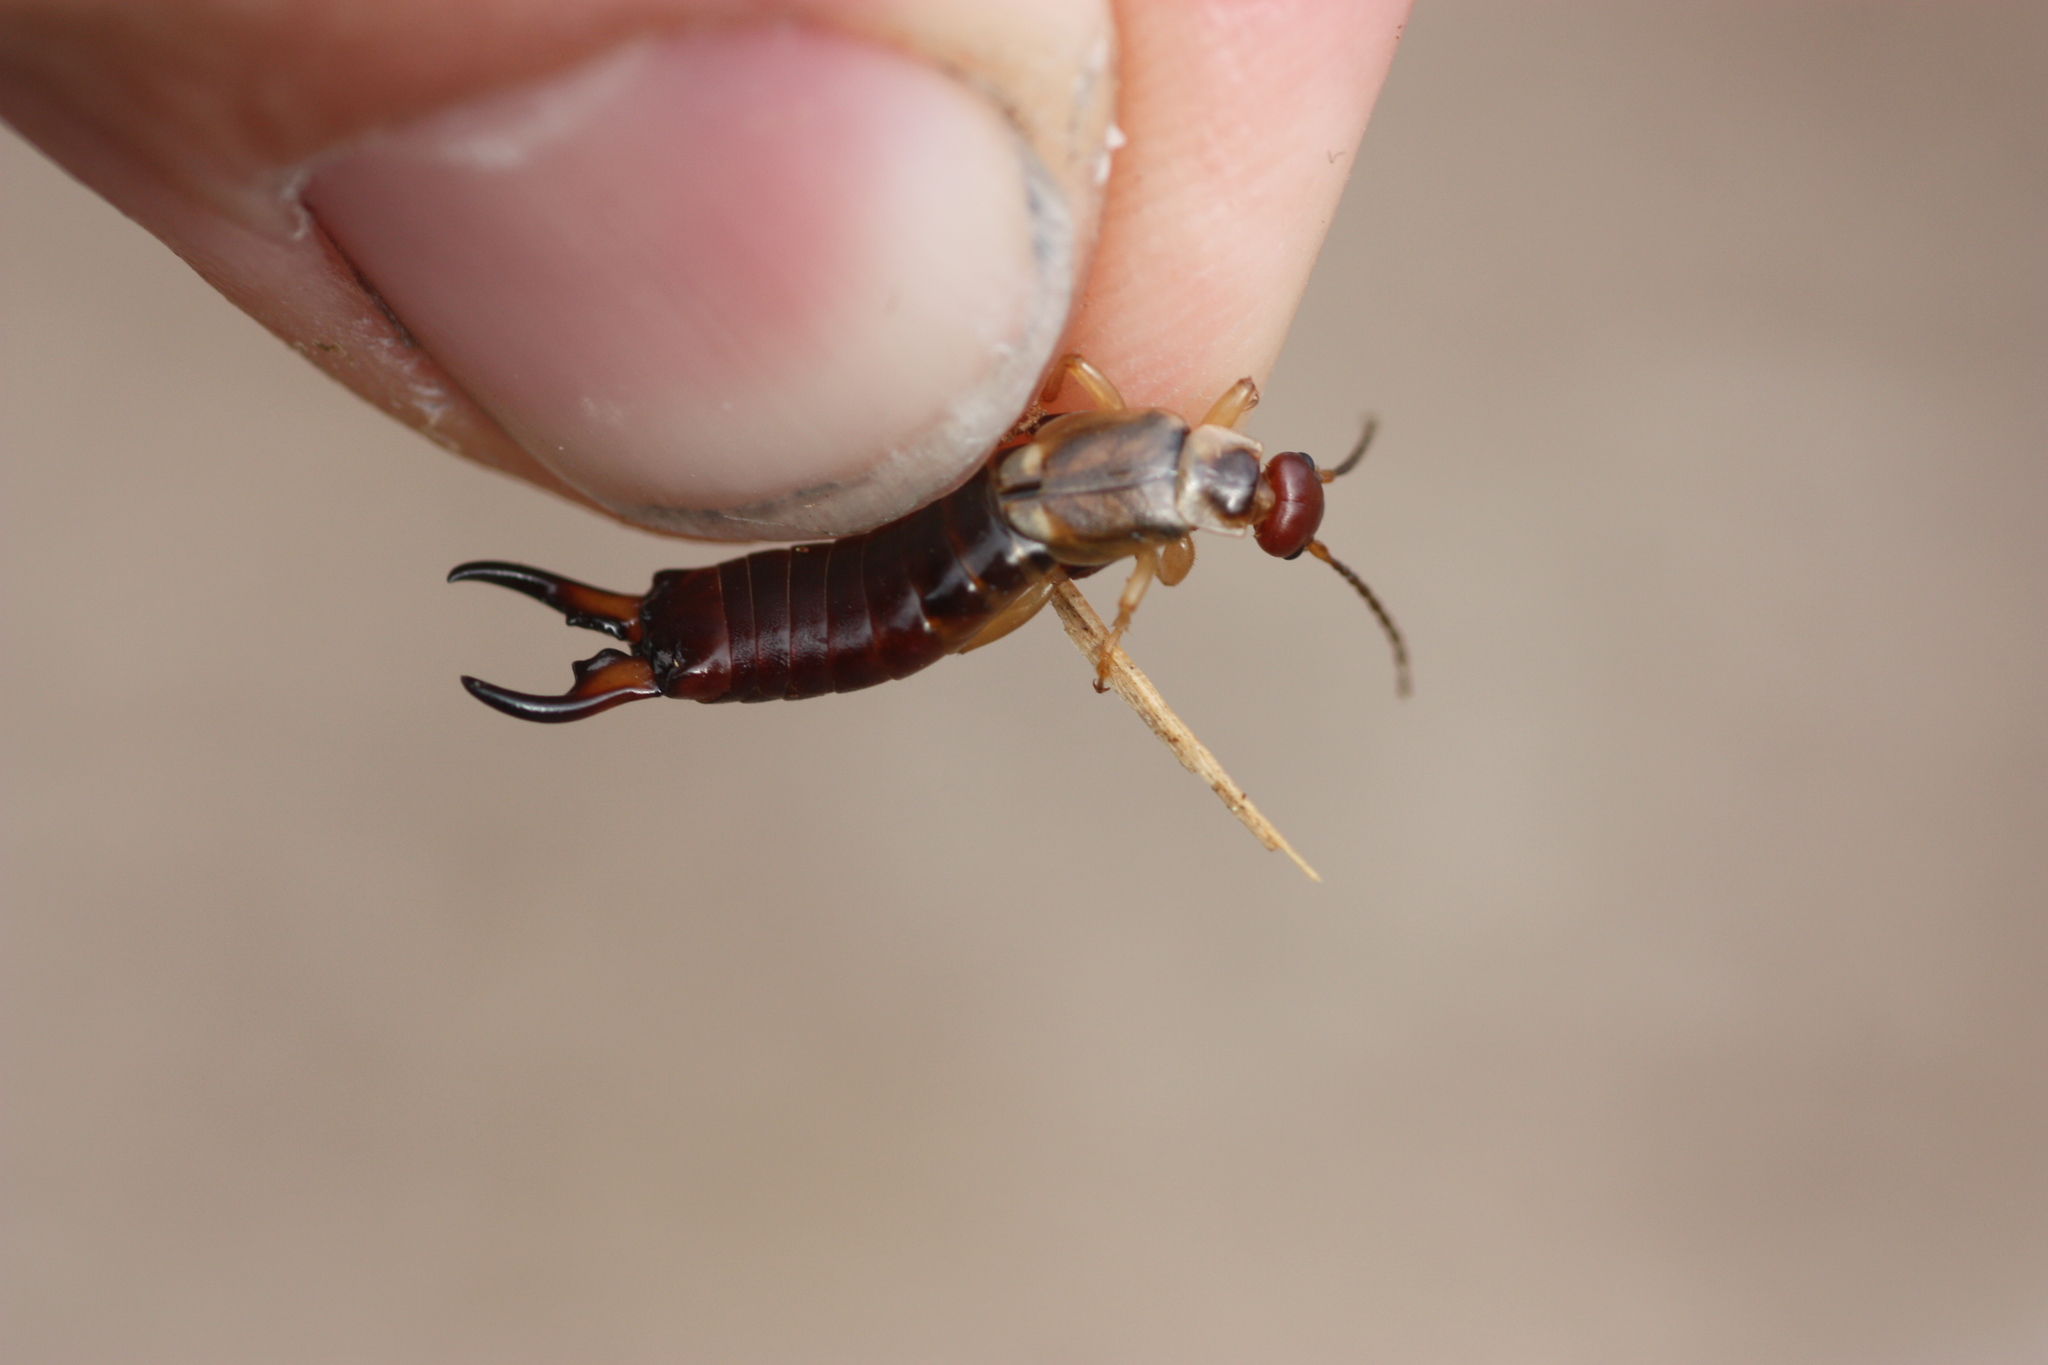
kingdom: Animalia
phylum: Arthropoda
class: Insecta
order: Dermaptera
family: Forficulidae
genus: Forficula
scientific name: Forficula
